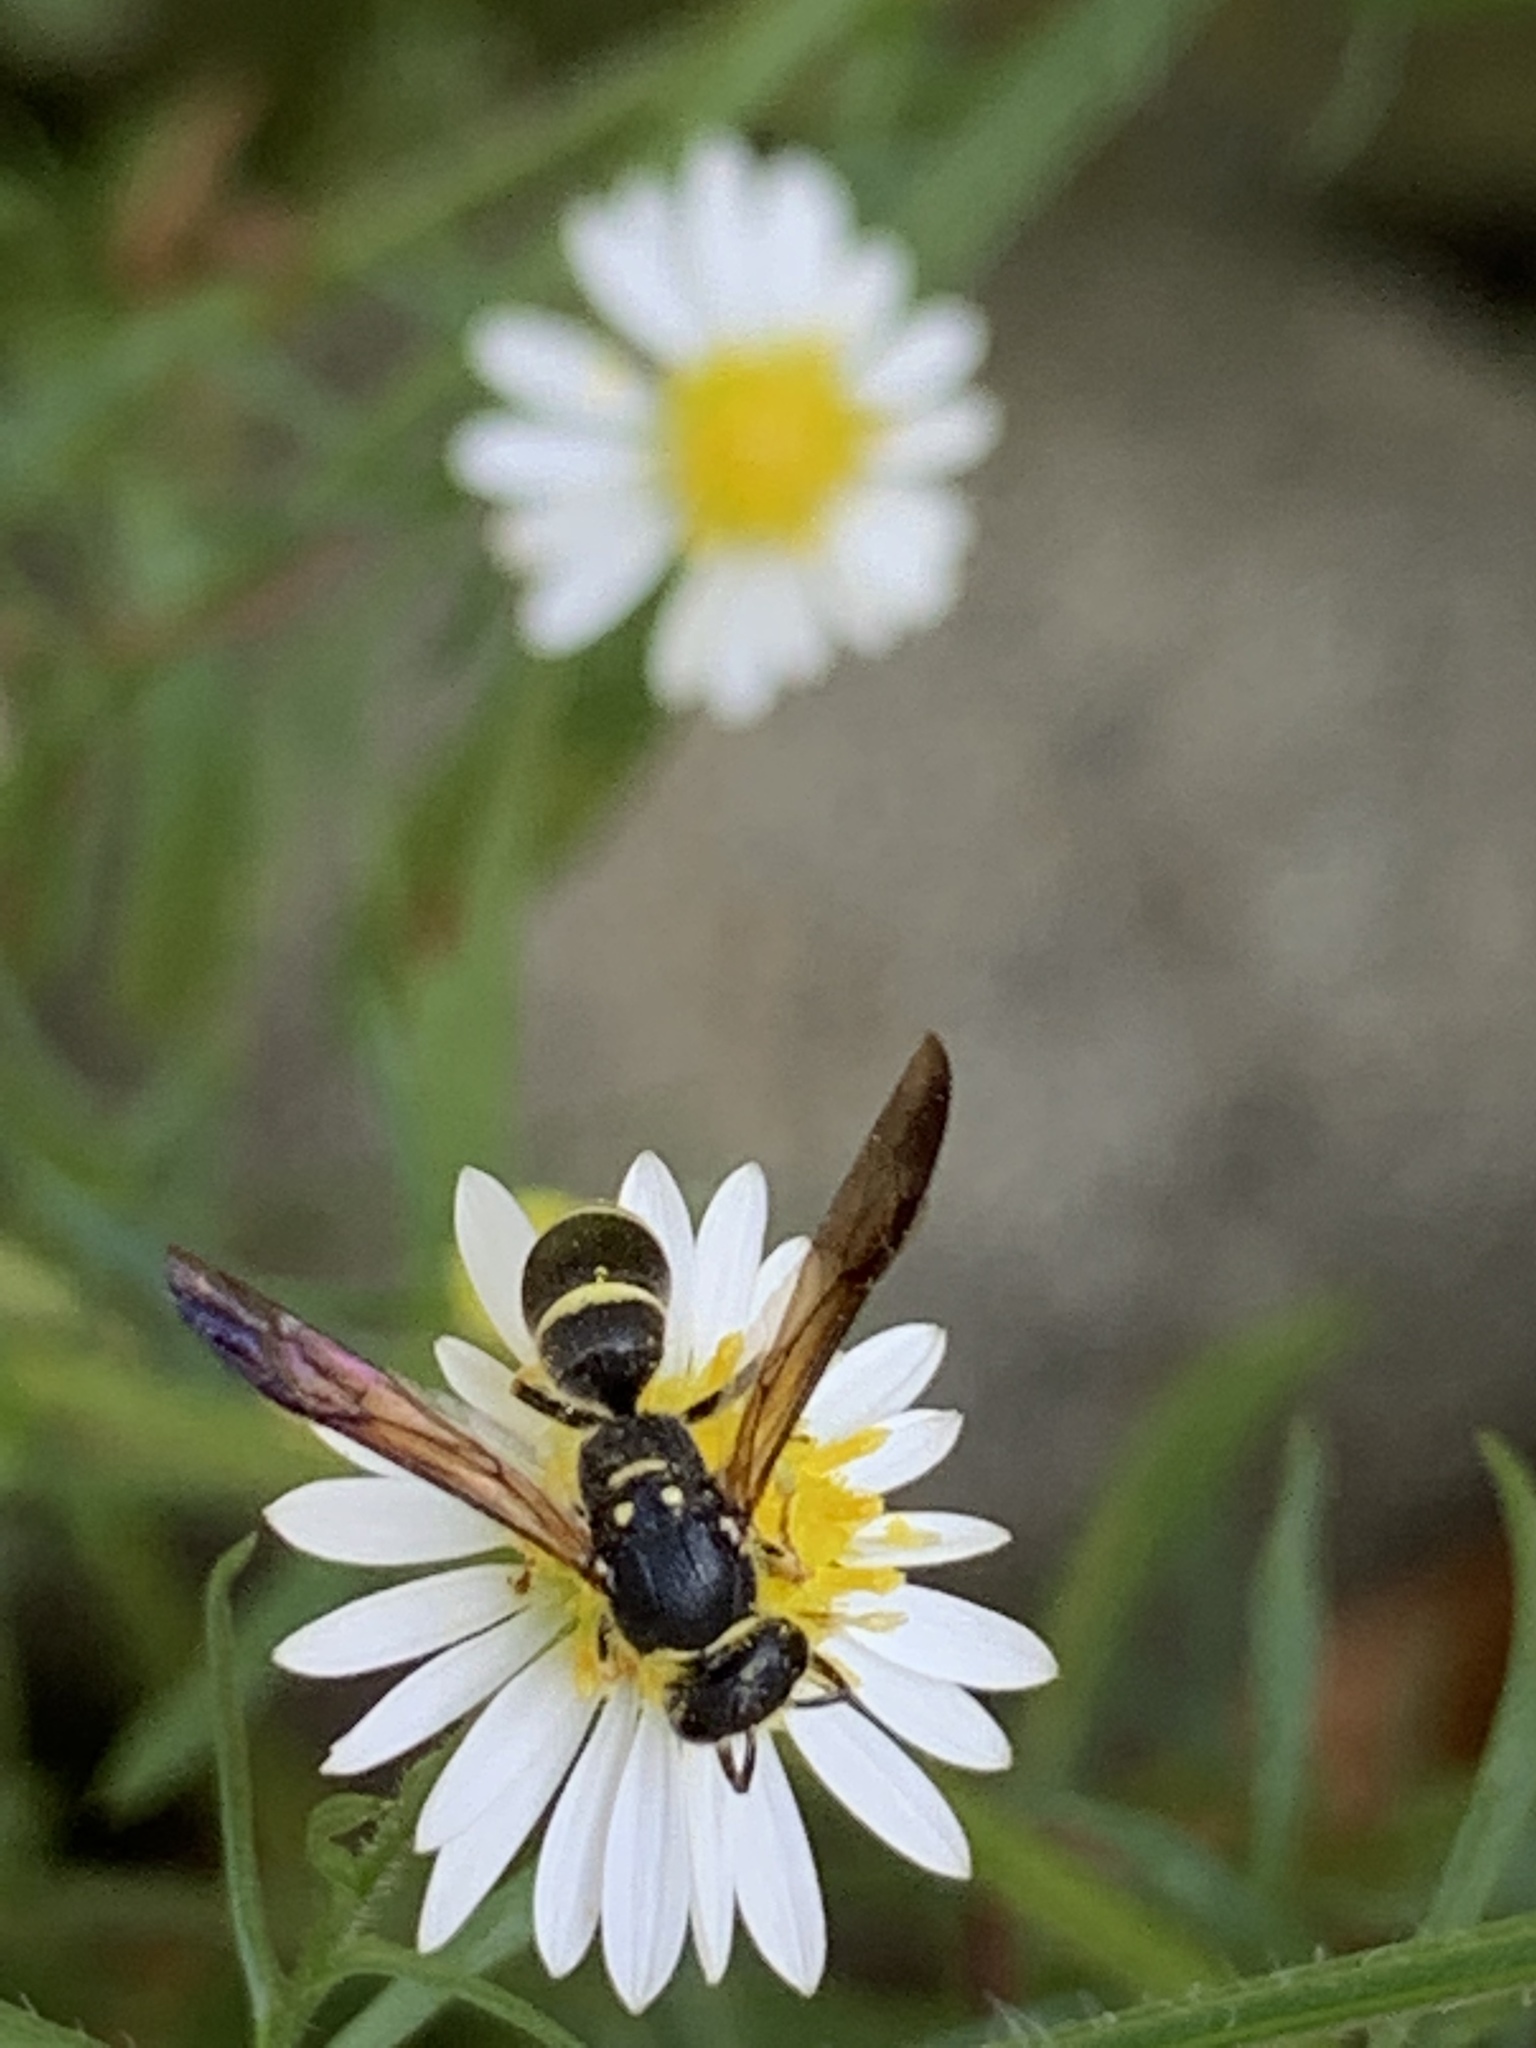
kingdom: Animalia
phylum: Arthropoda
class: Insecta
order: Hymenoptera
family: Vespidae
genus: Ancistrocerus
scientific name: Ancistrocerus adiabatus
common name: Bramble mason wasp
